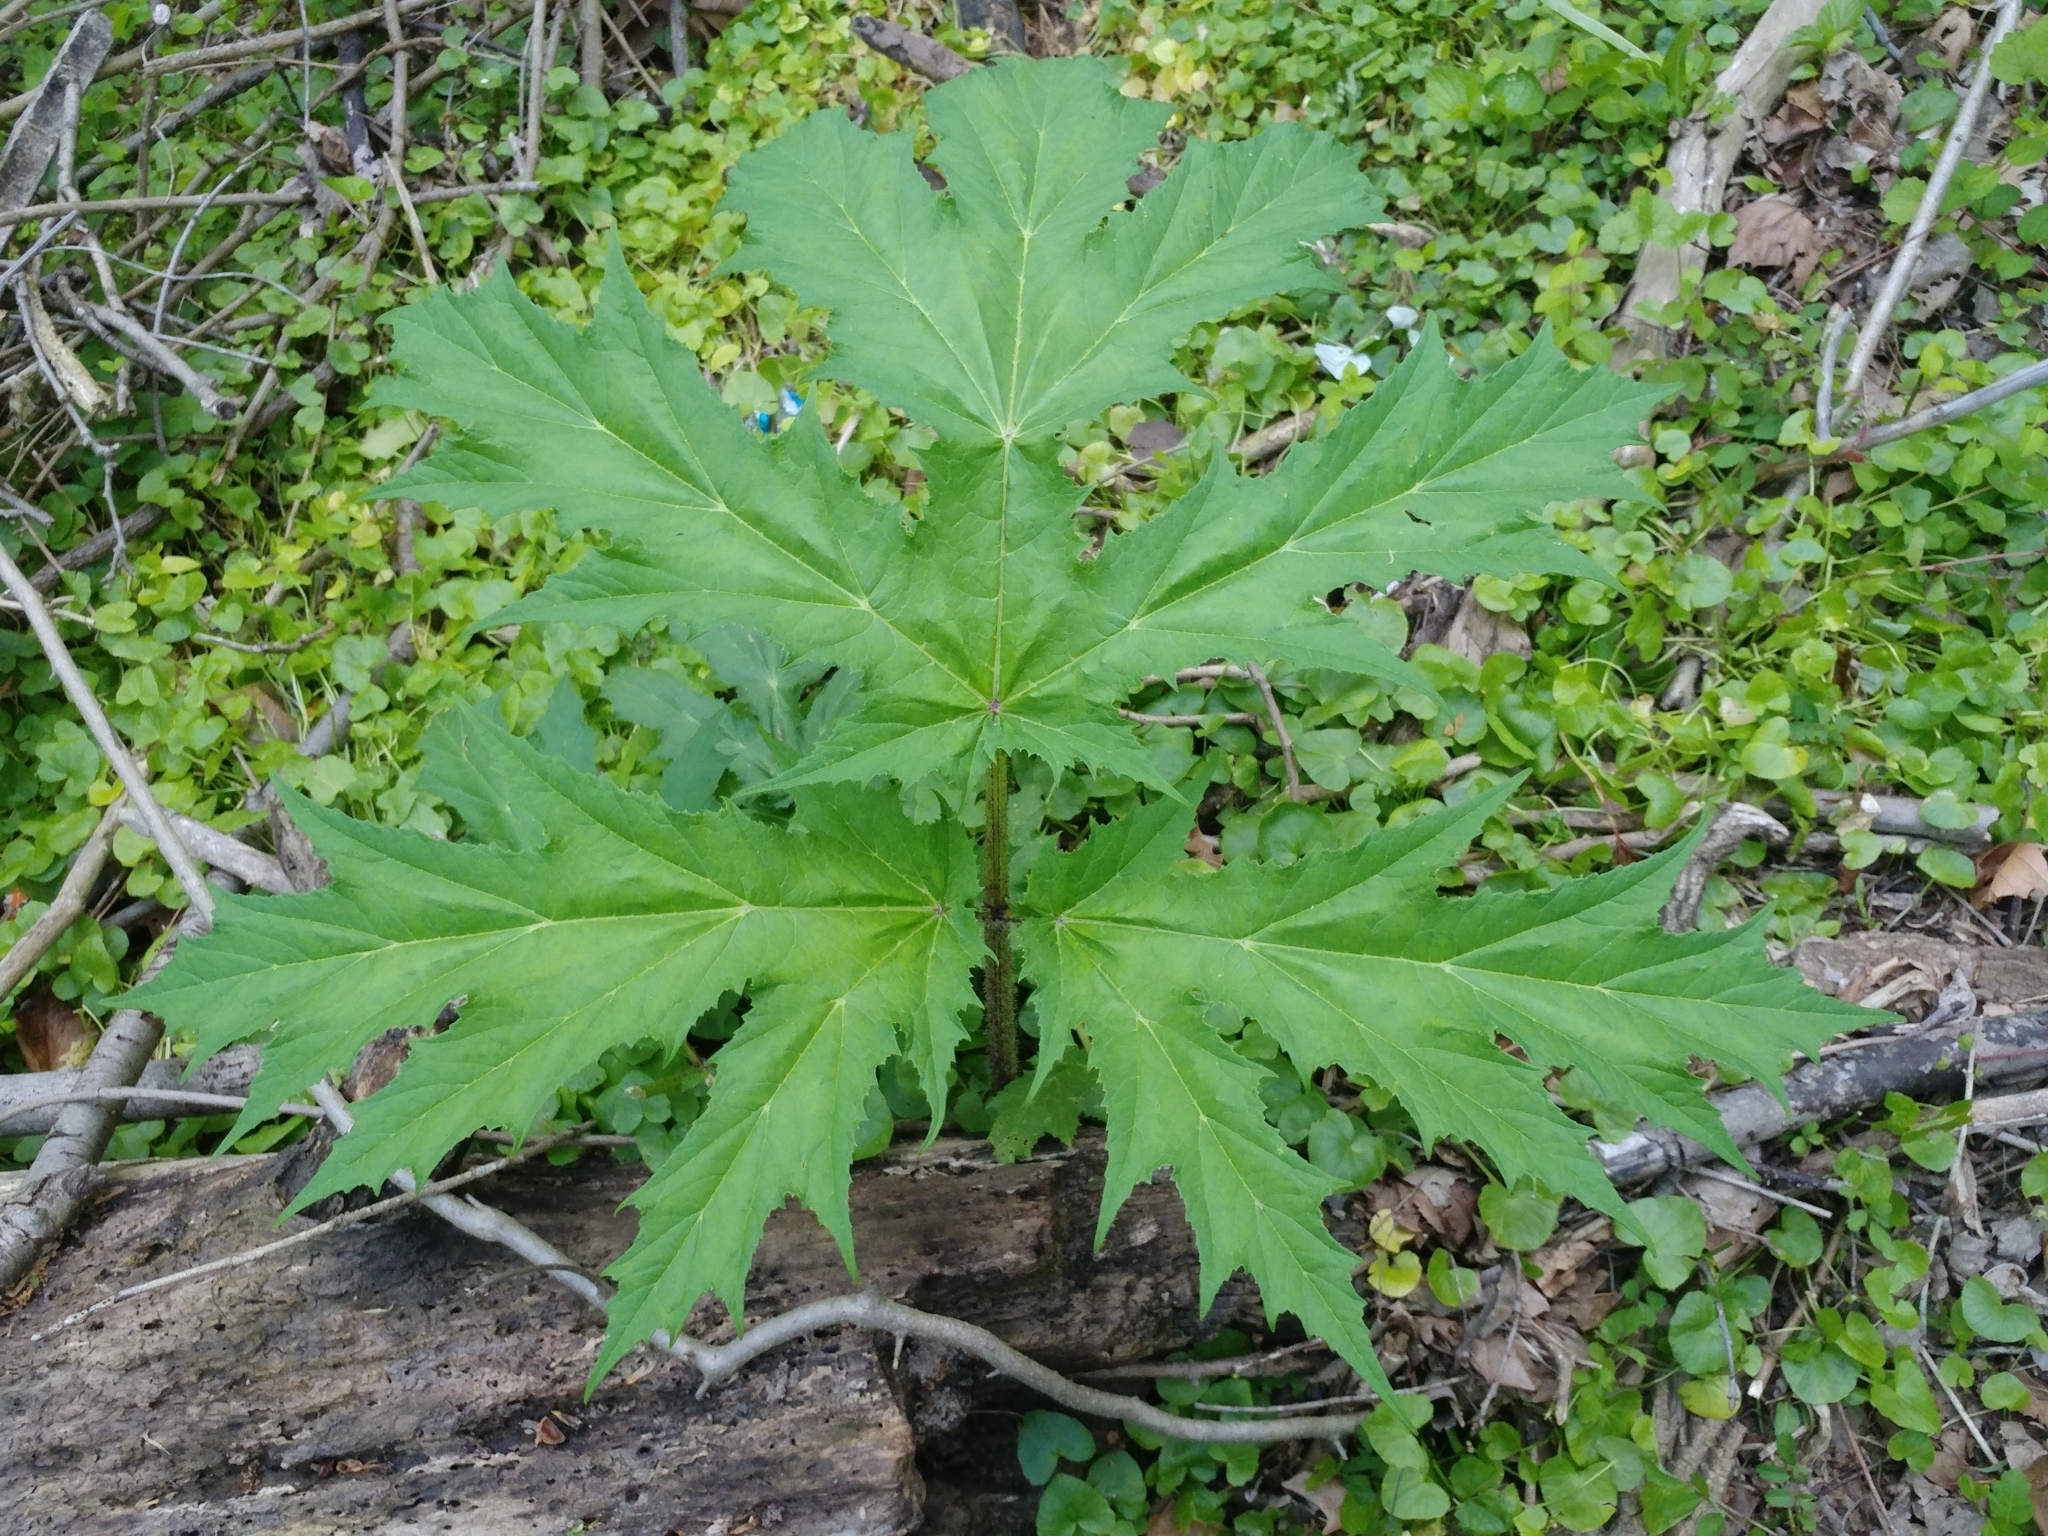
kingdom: Plantae
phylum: Tracheophyta
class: Magnoliopsida
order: Apiales
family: Apiaceae
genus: Heracleum
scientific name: Heracleum mantegazzianum
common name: Giant hogweed
